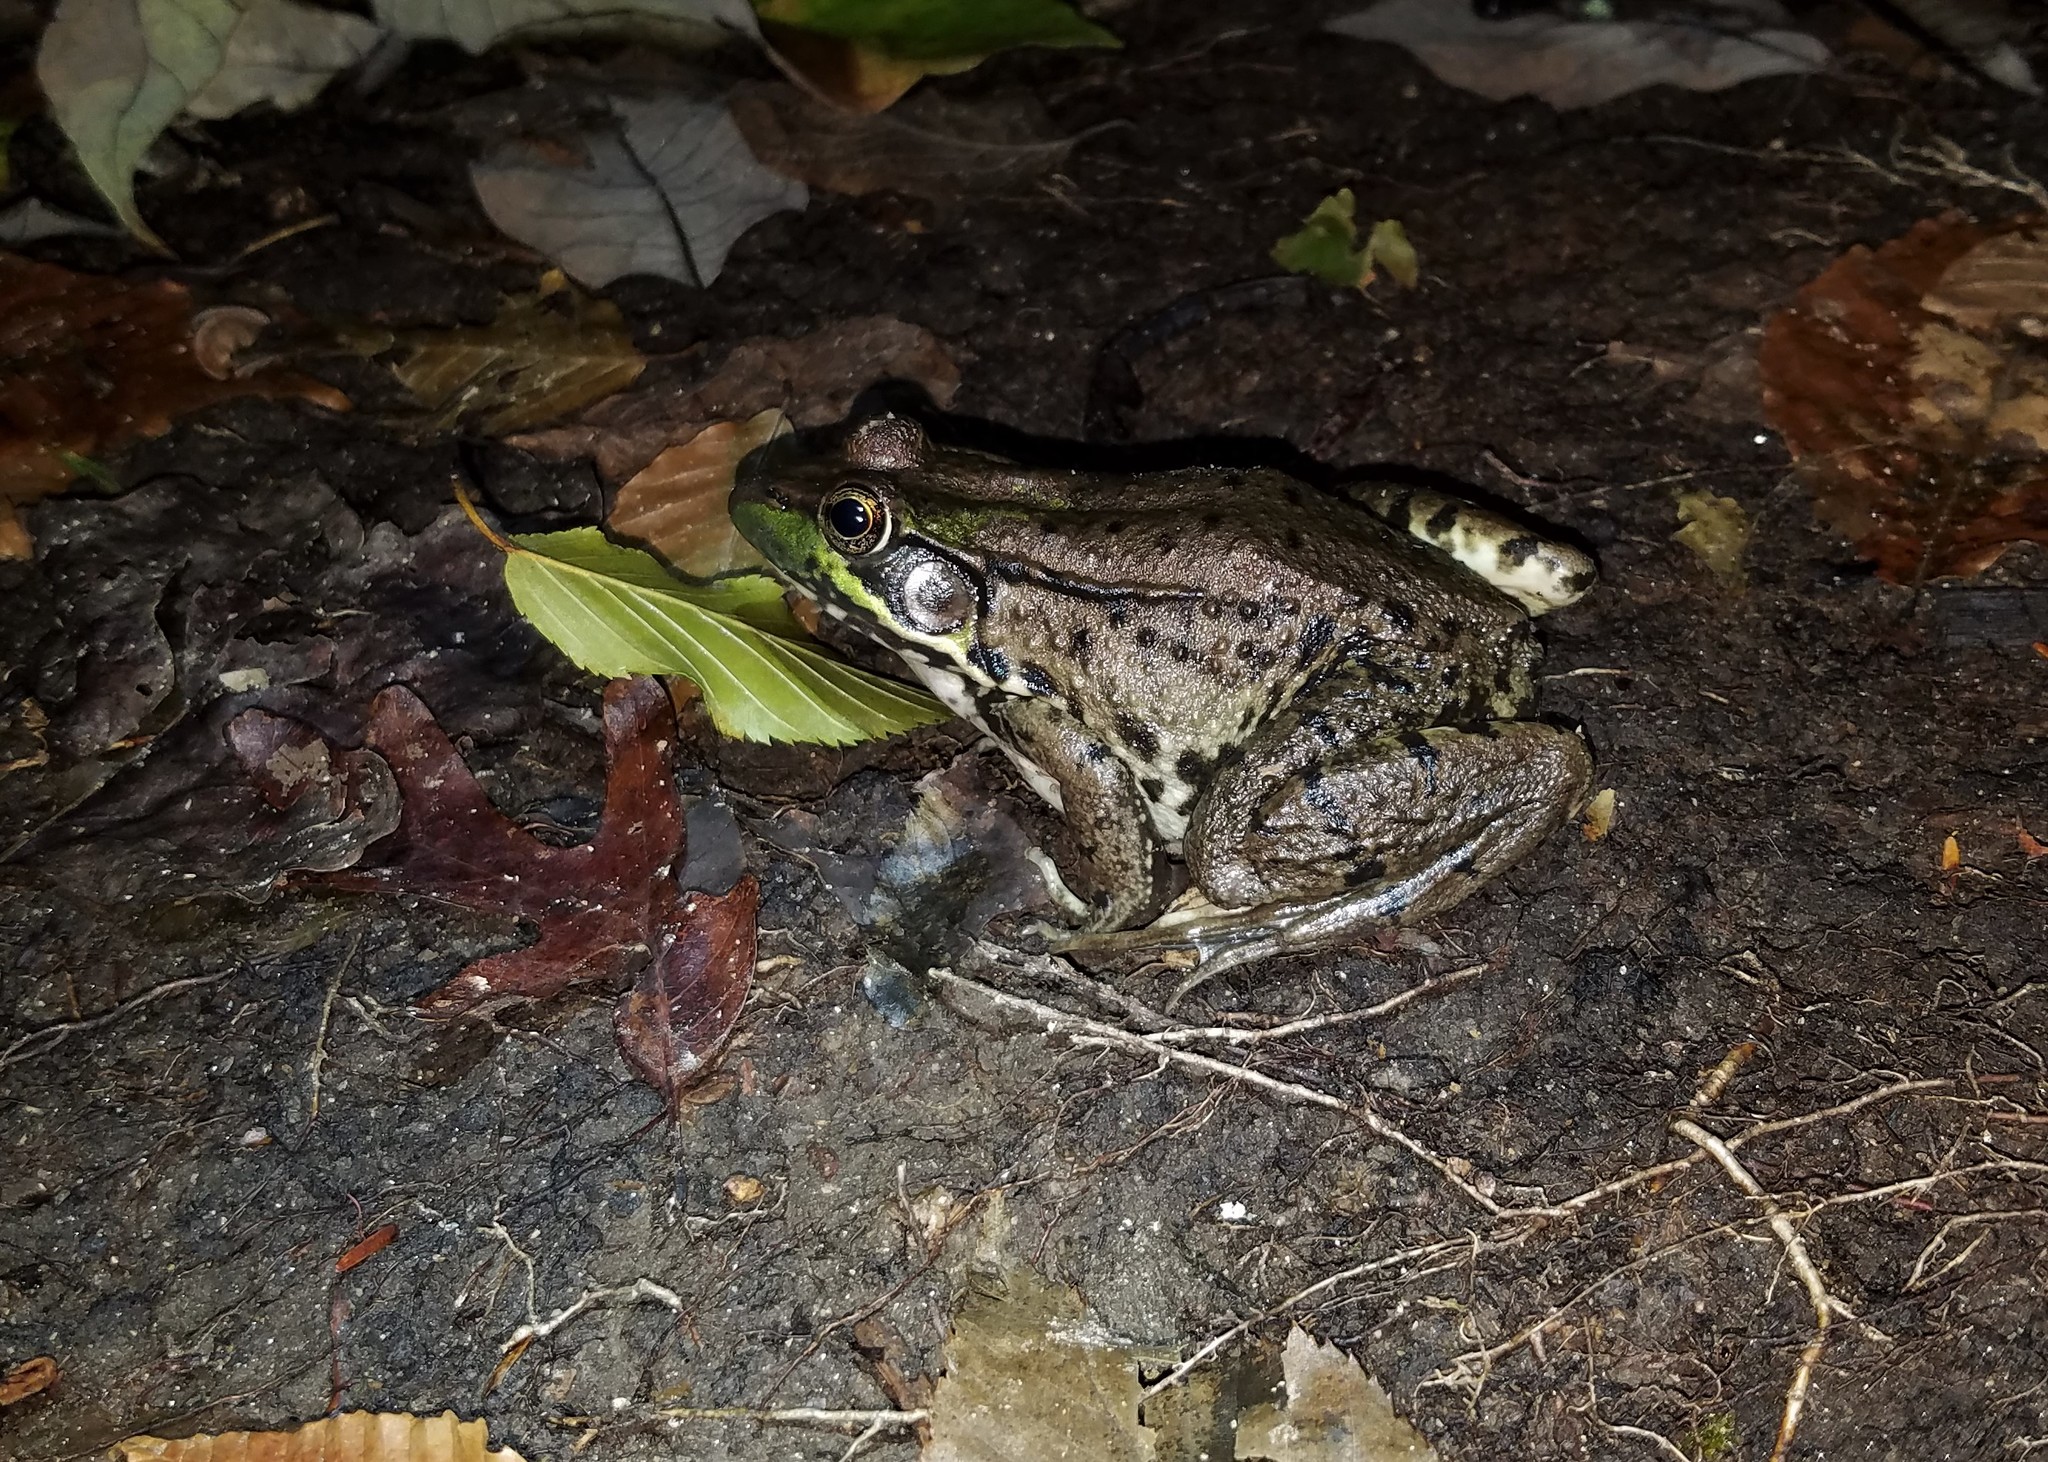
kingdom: Animalia
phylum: Chordata
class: Amphibia
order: Anura
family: Ranidae
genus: Lithobates
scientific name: Lithobates clamitans
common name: Green frog
